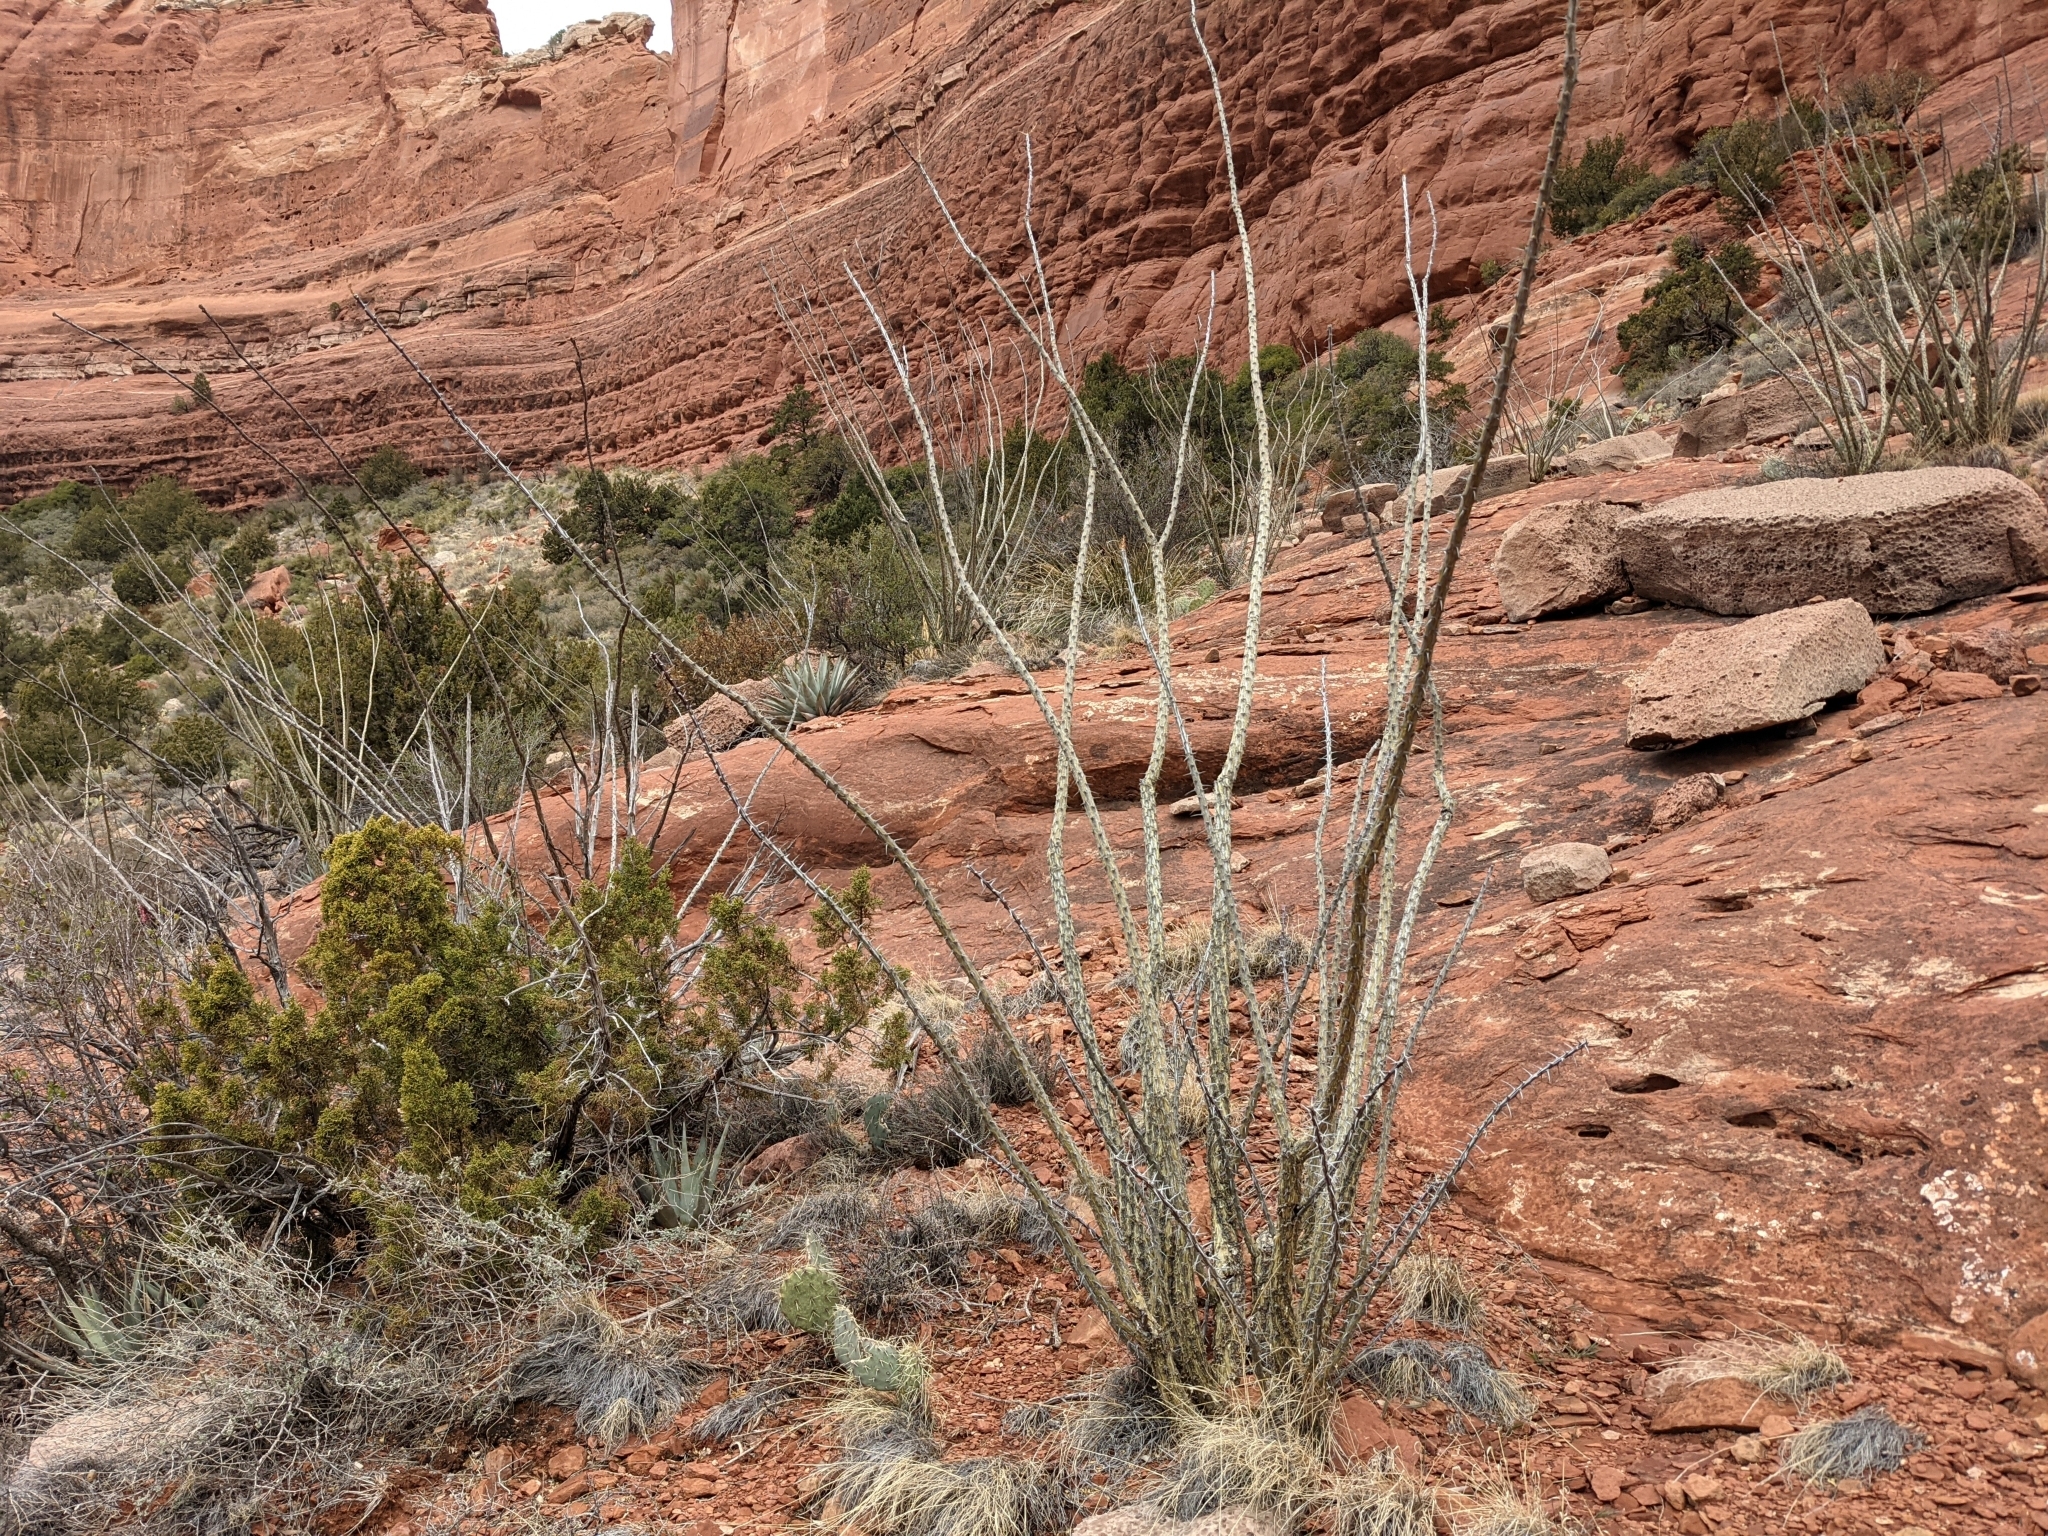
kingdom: Plantae
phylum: Tracheophyta
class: Magnoliopsida
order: Ericales
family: Fouquieriaceae
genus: Fouquieria
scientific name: Fouquieria splendens
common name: Vine-cactus
